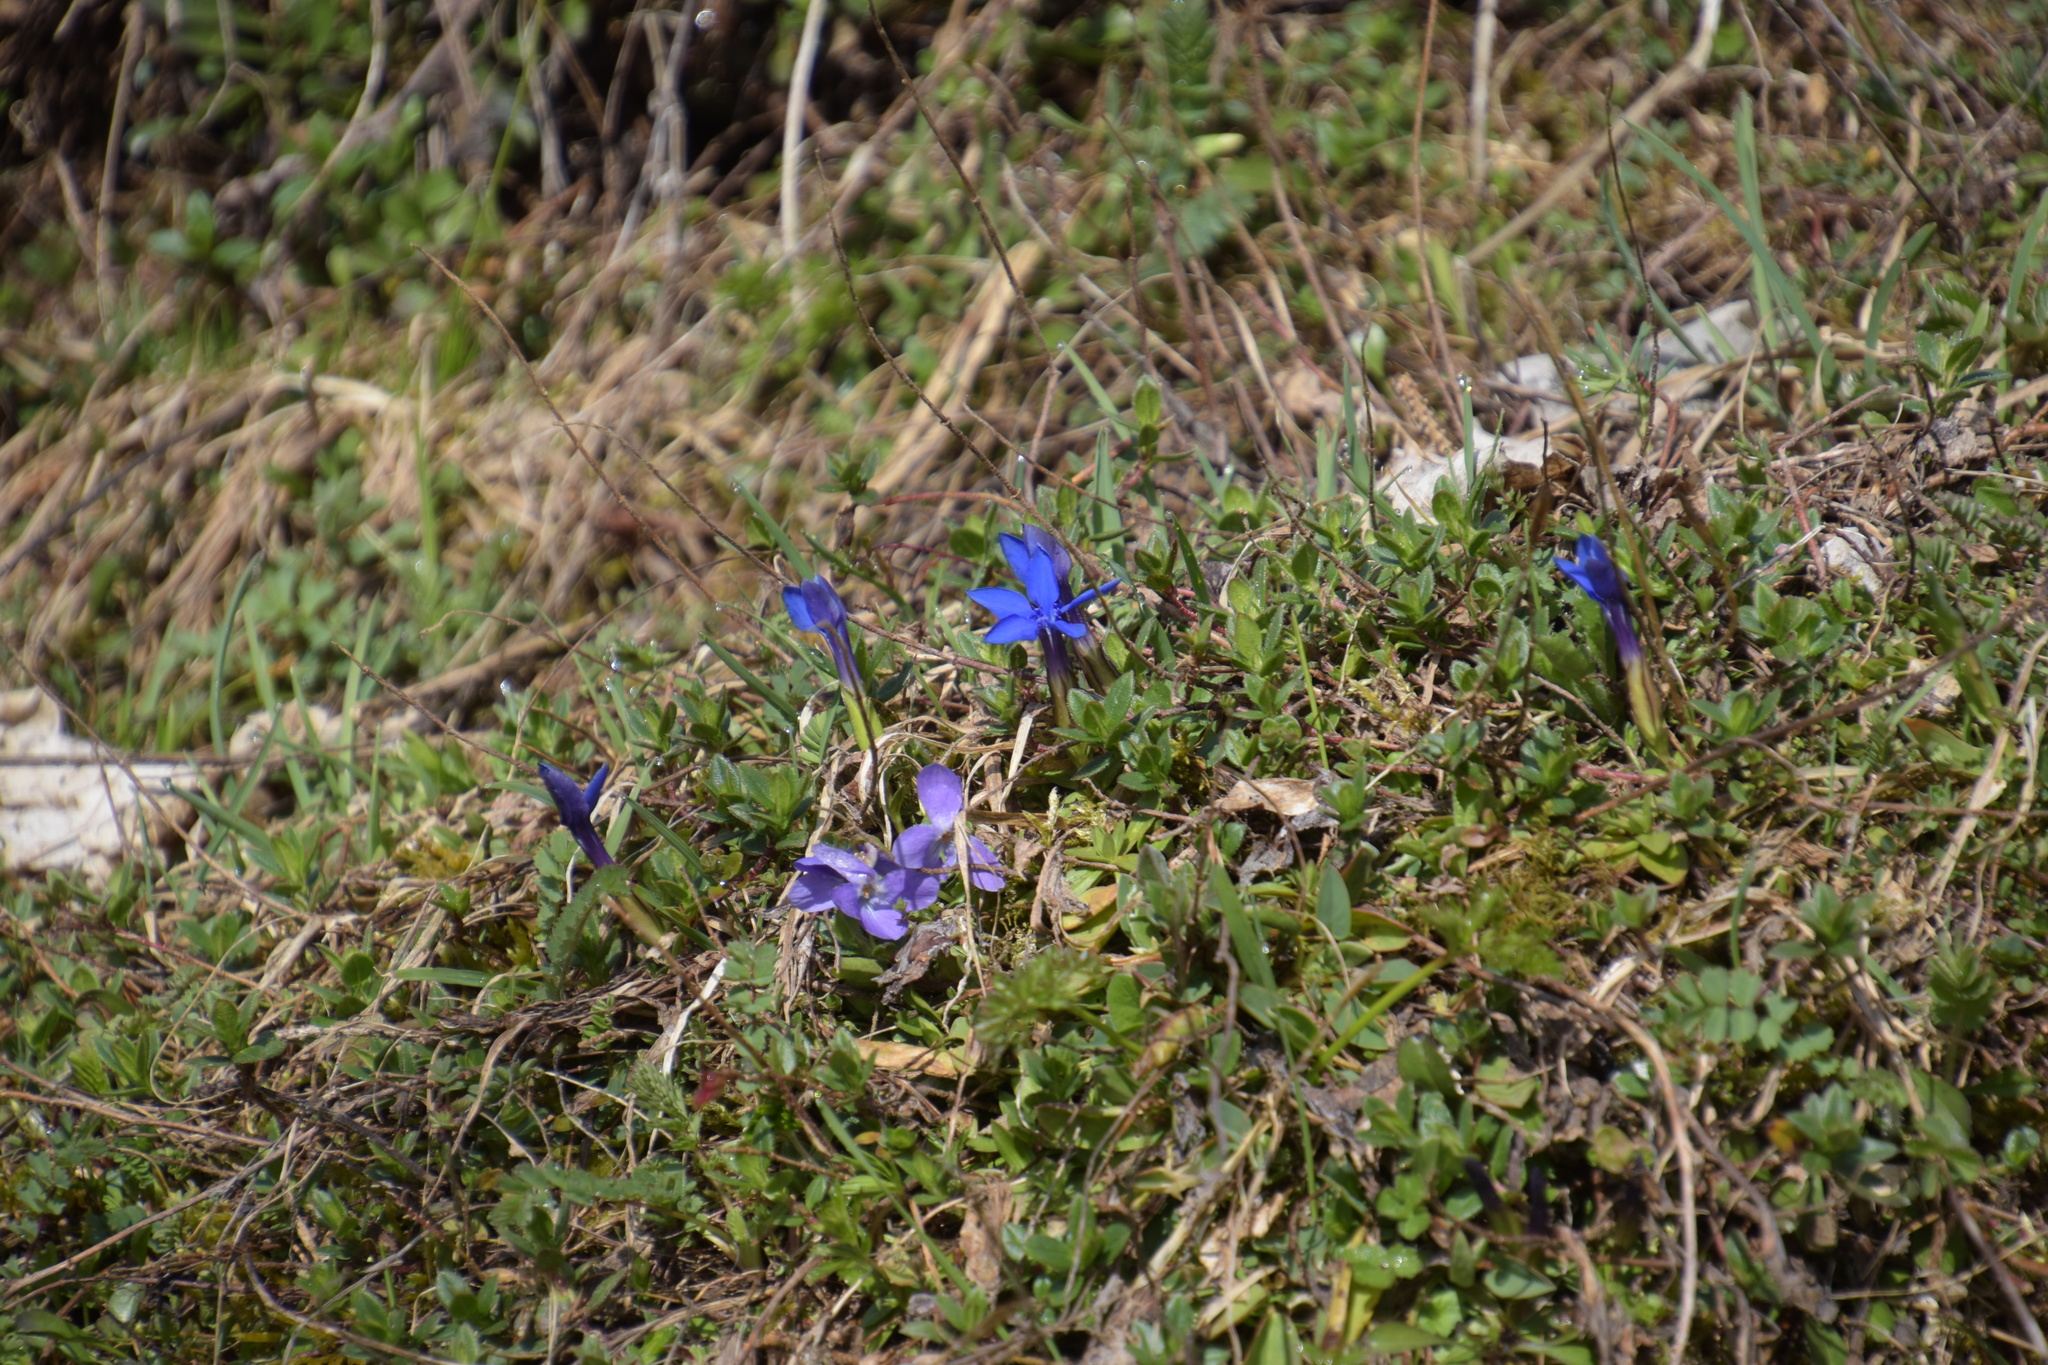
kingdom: Plantae
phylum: Tracheophyta
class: Magnoliopsida
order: Gentianales
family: Gentianaceae
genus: Gentiana
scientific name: Gentiana verna
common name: Spring gentian
